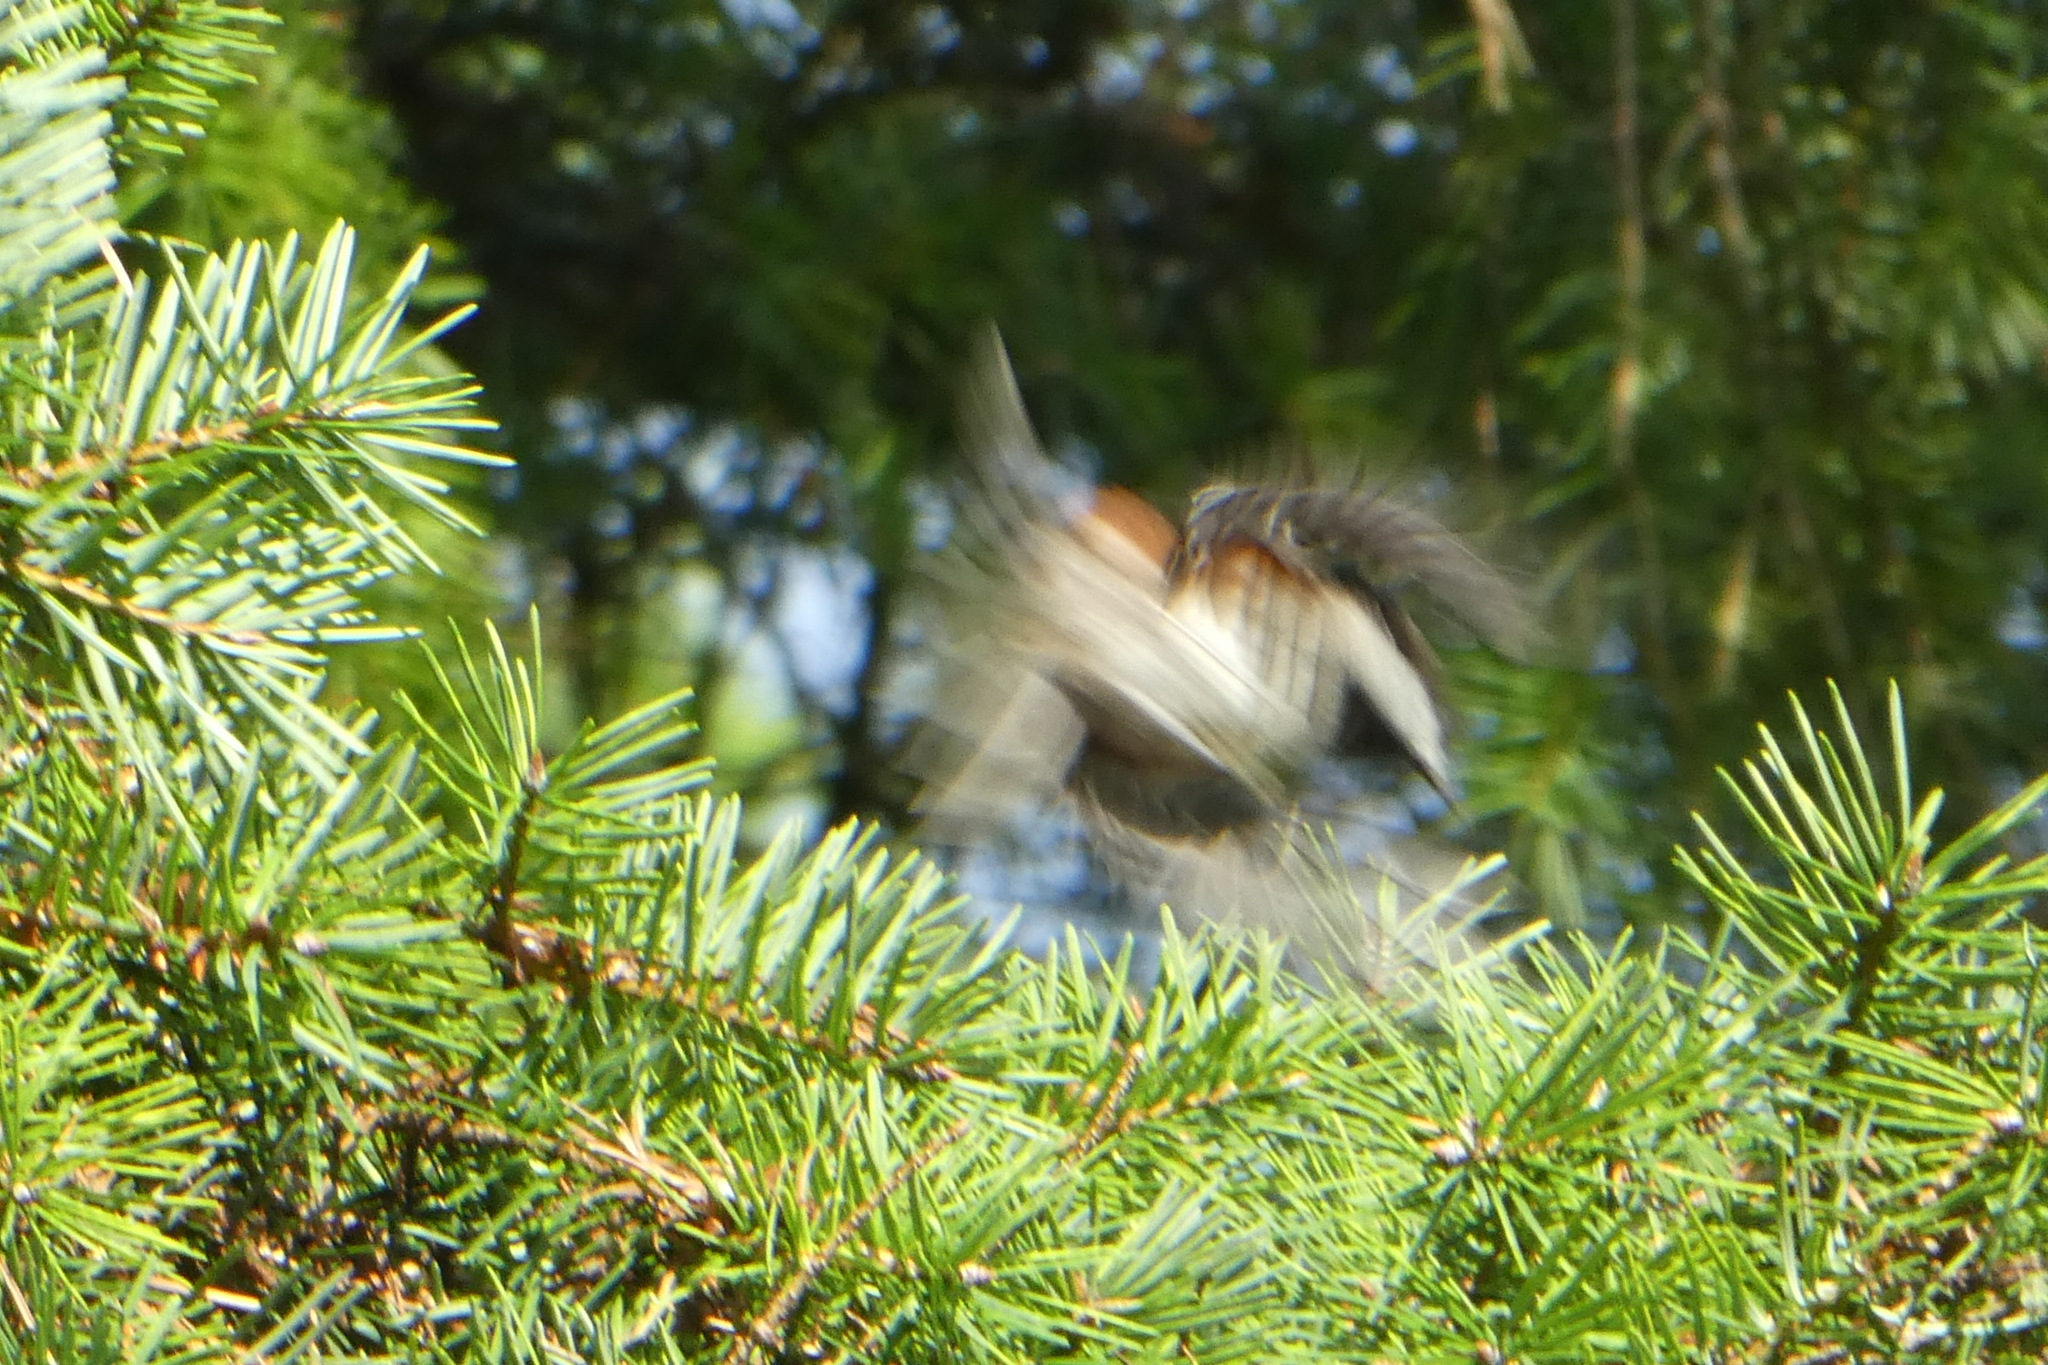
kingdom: Animalia
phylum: Chordata
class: Aves
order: Passeriformes
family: Paridae
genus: Poecile
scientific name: Poecile rufescens
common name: Chestnut-backed chickadee
